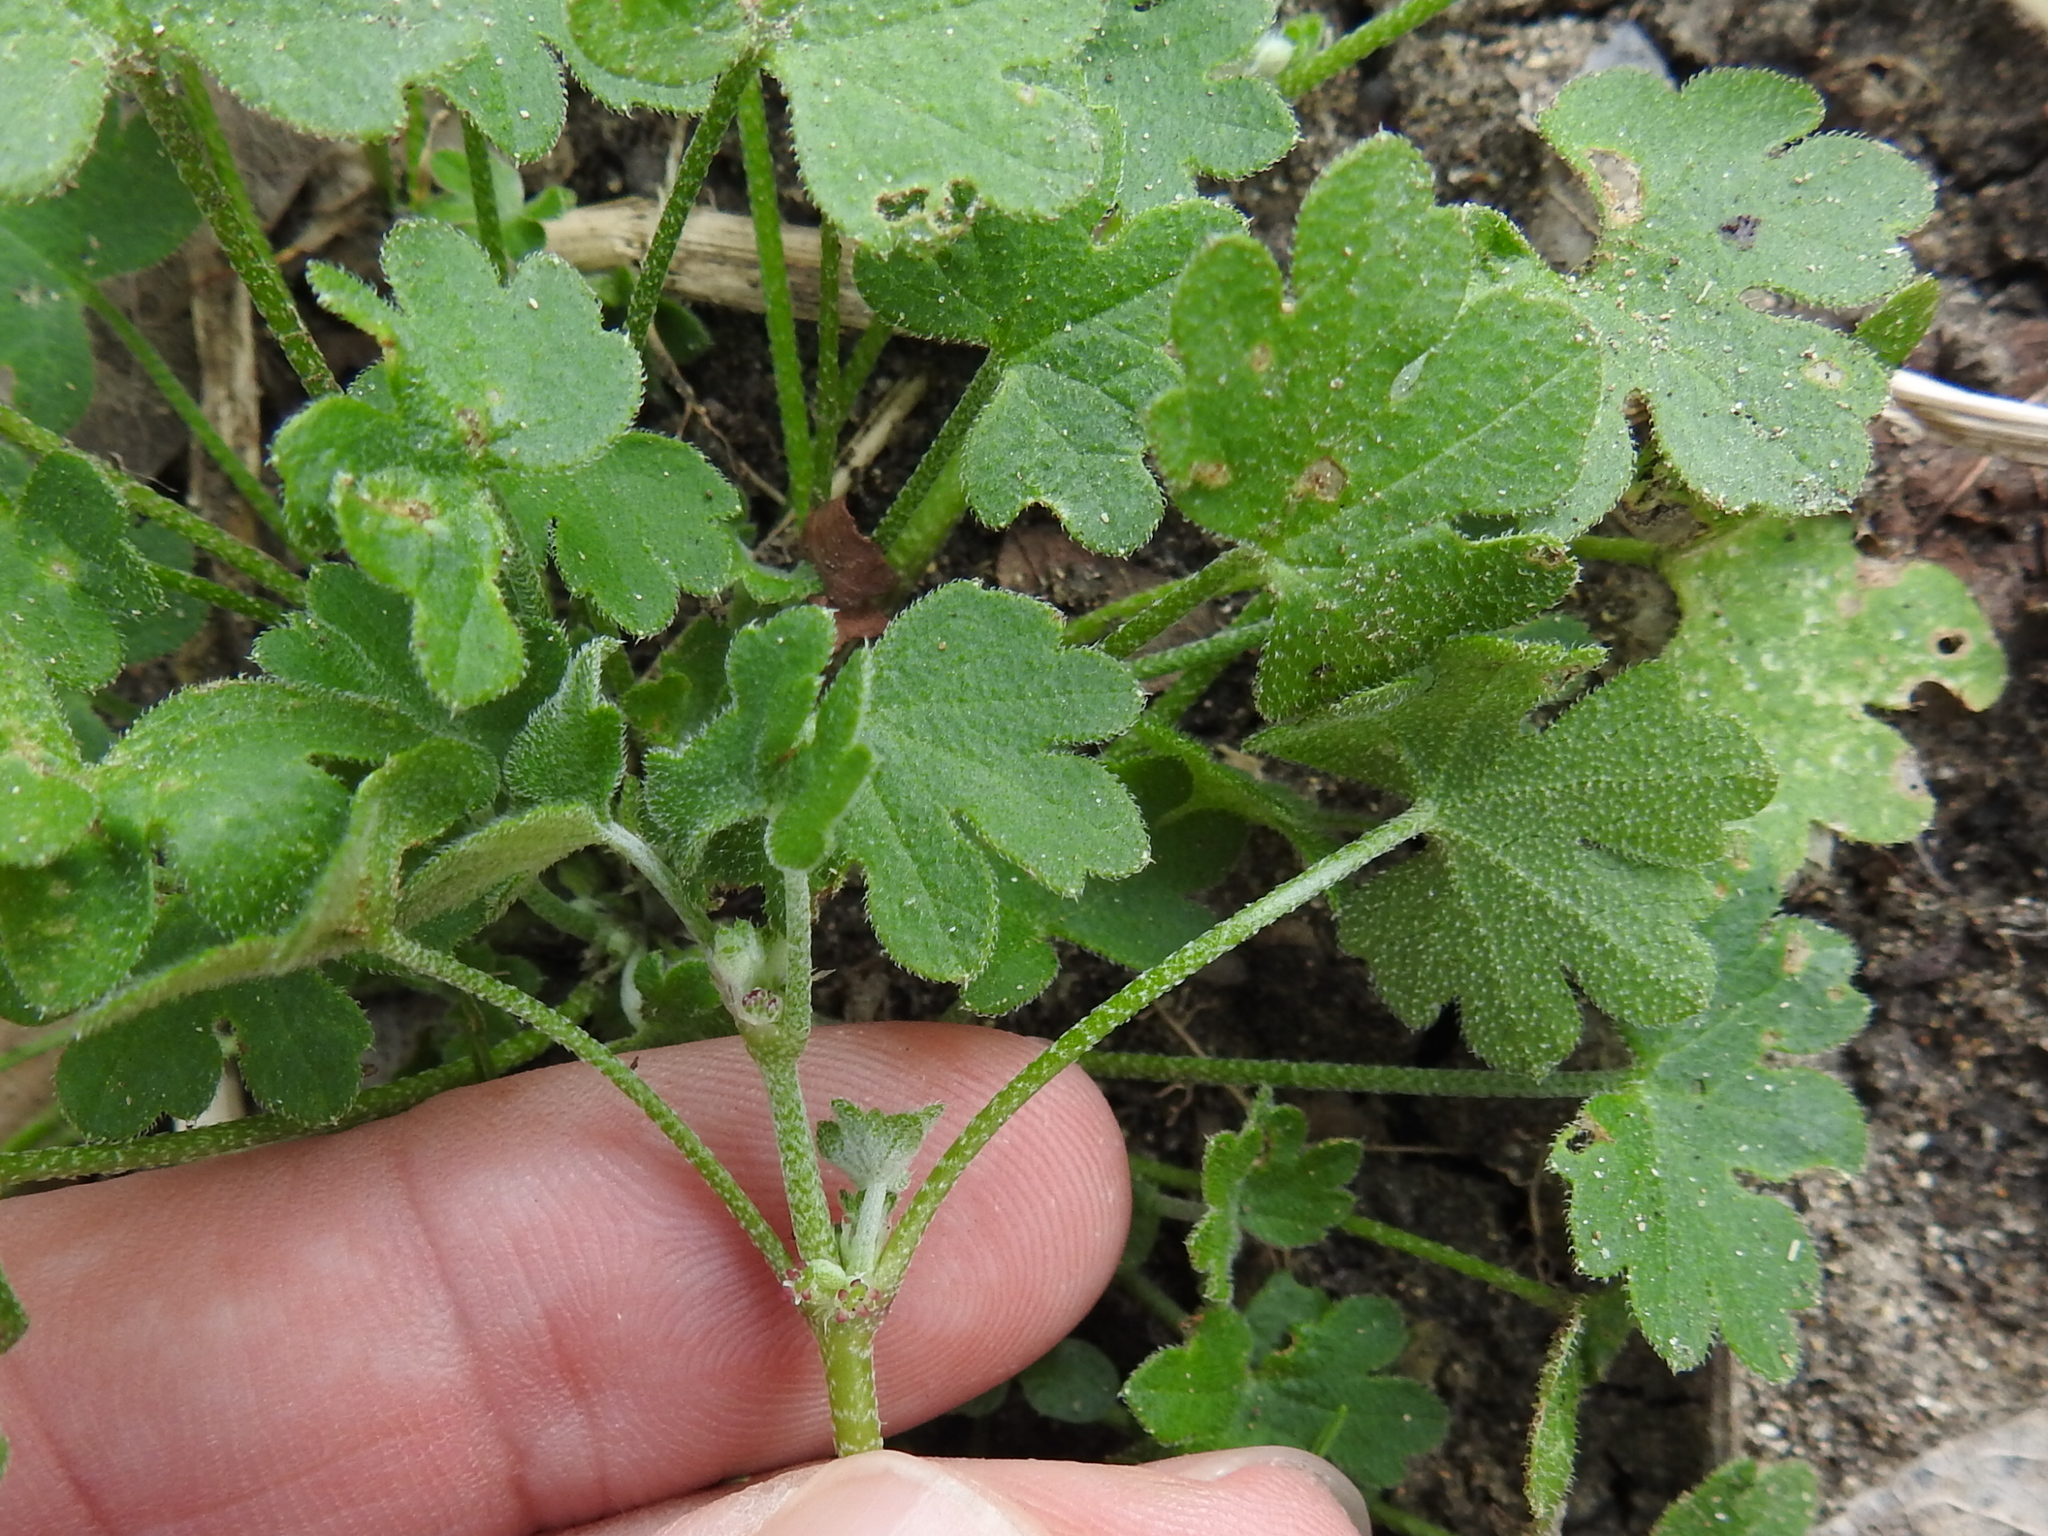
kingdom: Plantae
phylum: Tracheophyta
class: Magnoliopsida
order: Apiales
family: Apiaceae
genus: Bowlesia
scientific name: Bowlesia incana
